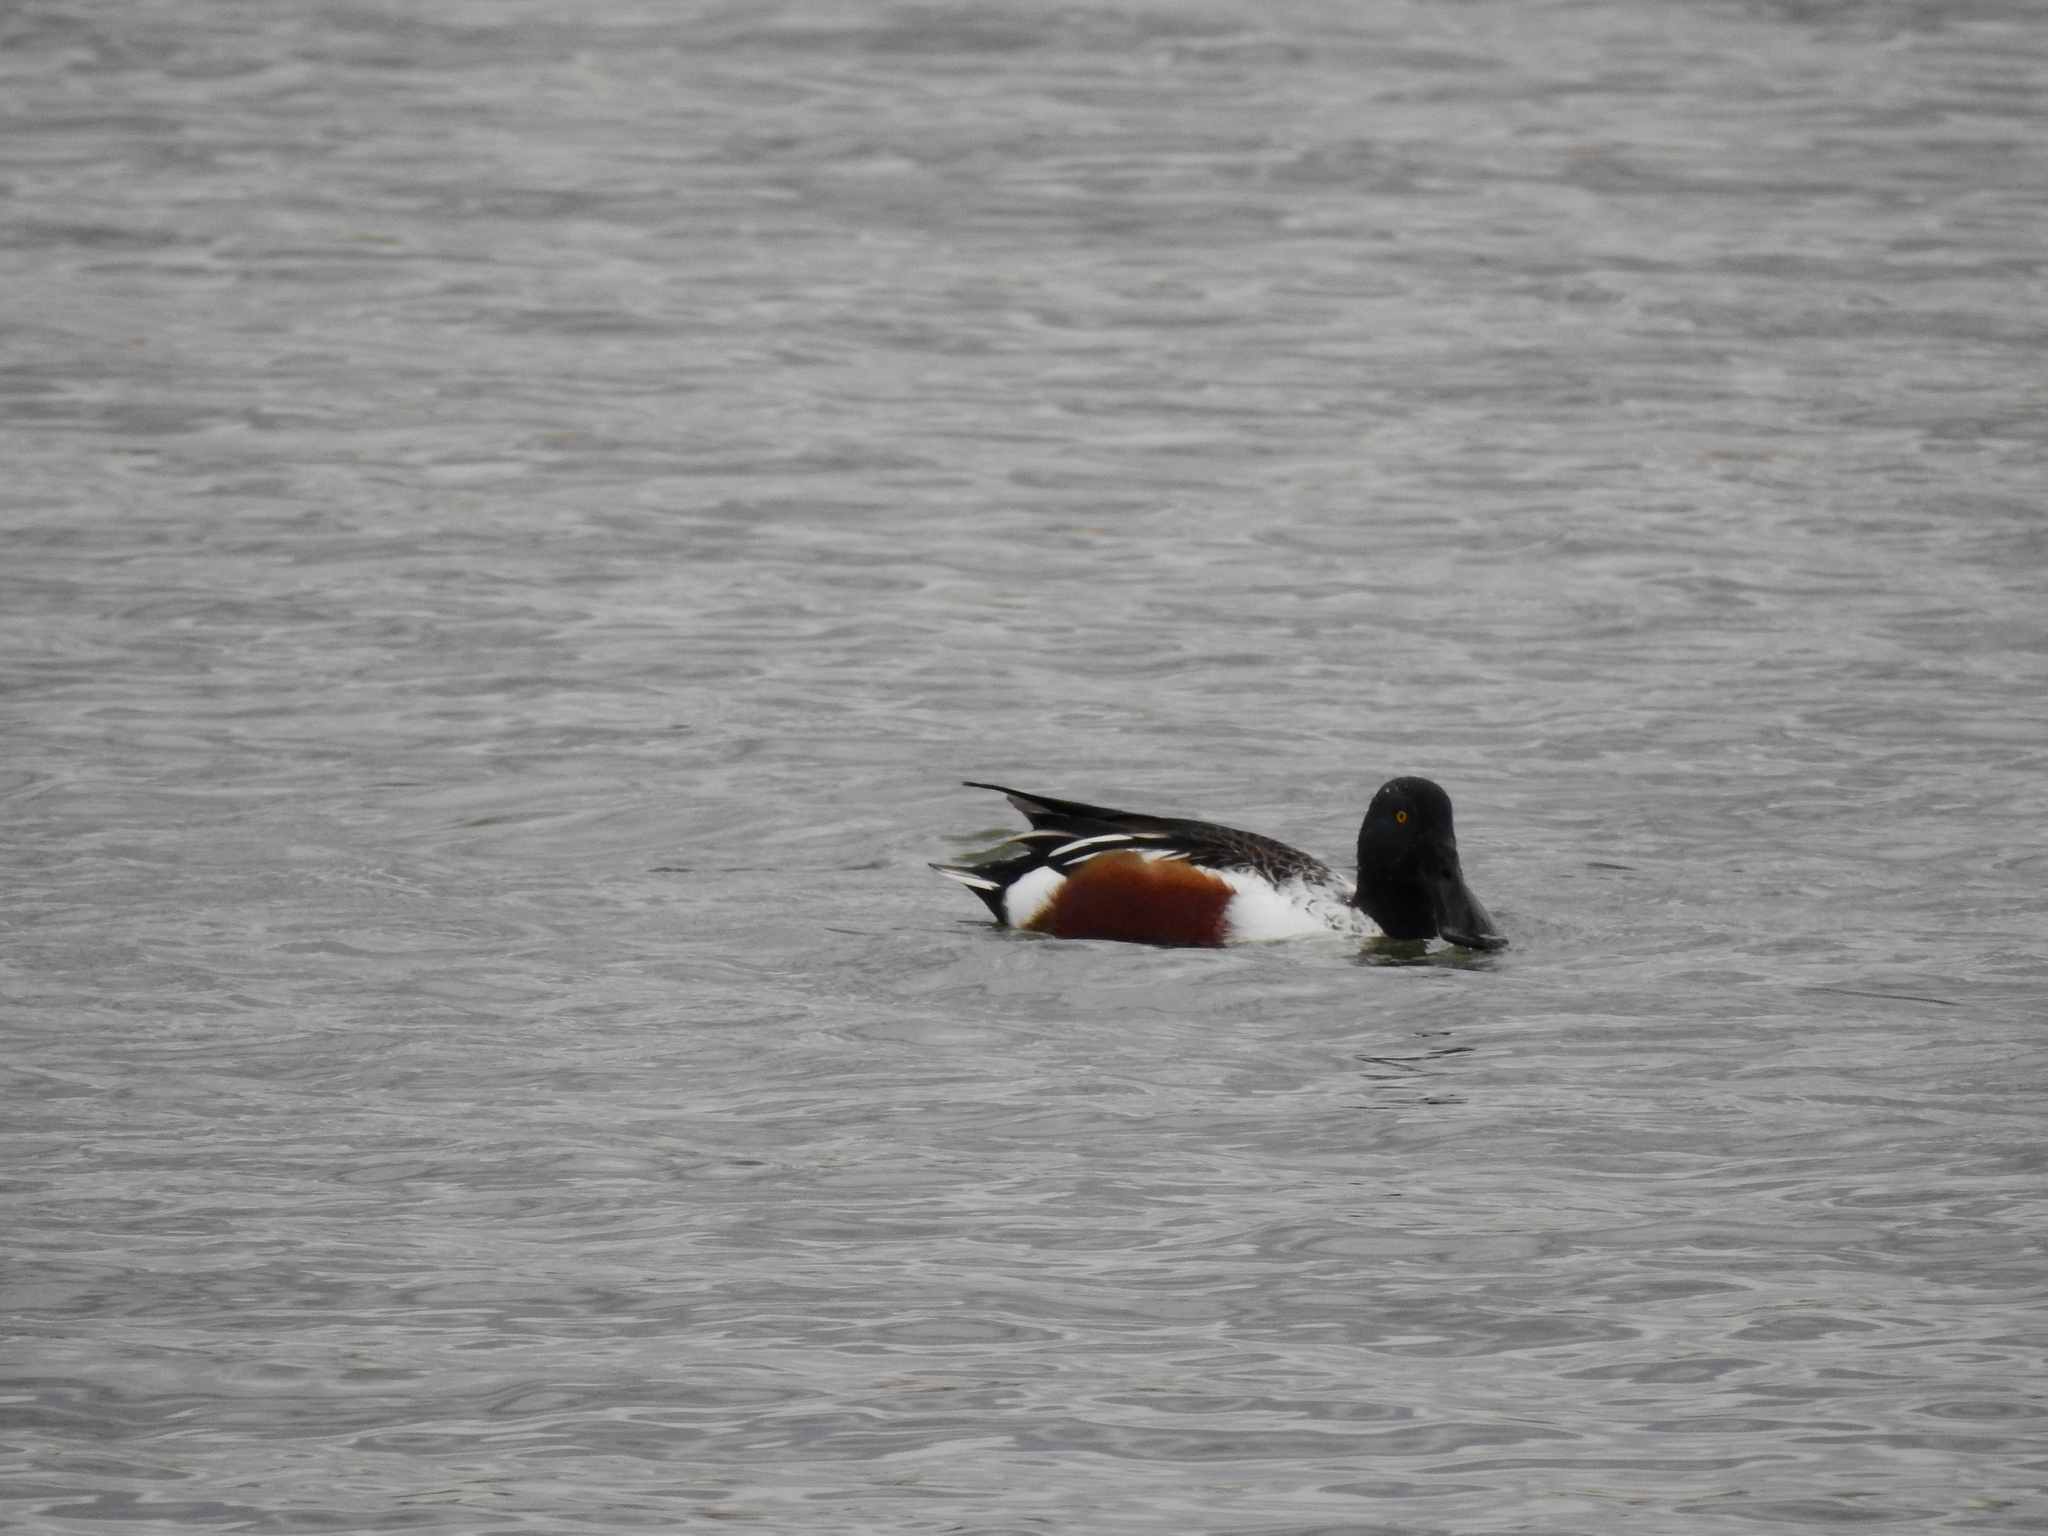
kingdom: Animalia
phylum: Chordata
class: Aves
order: Anseriformes
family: Anatidae
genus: Spatula
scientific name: Spatula clypeata
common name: Northern shoveler
